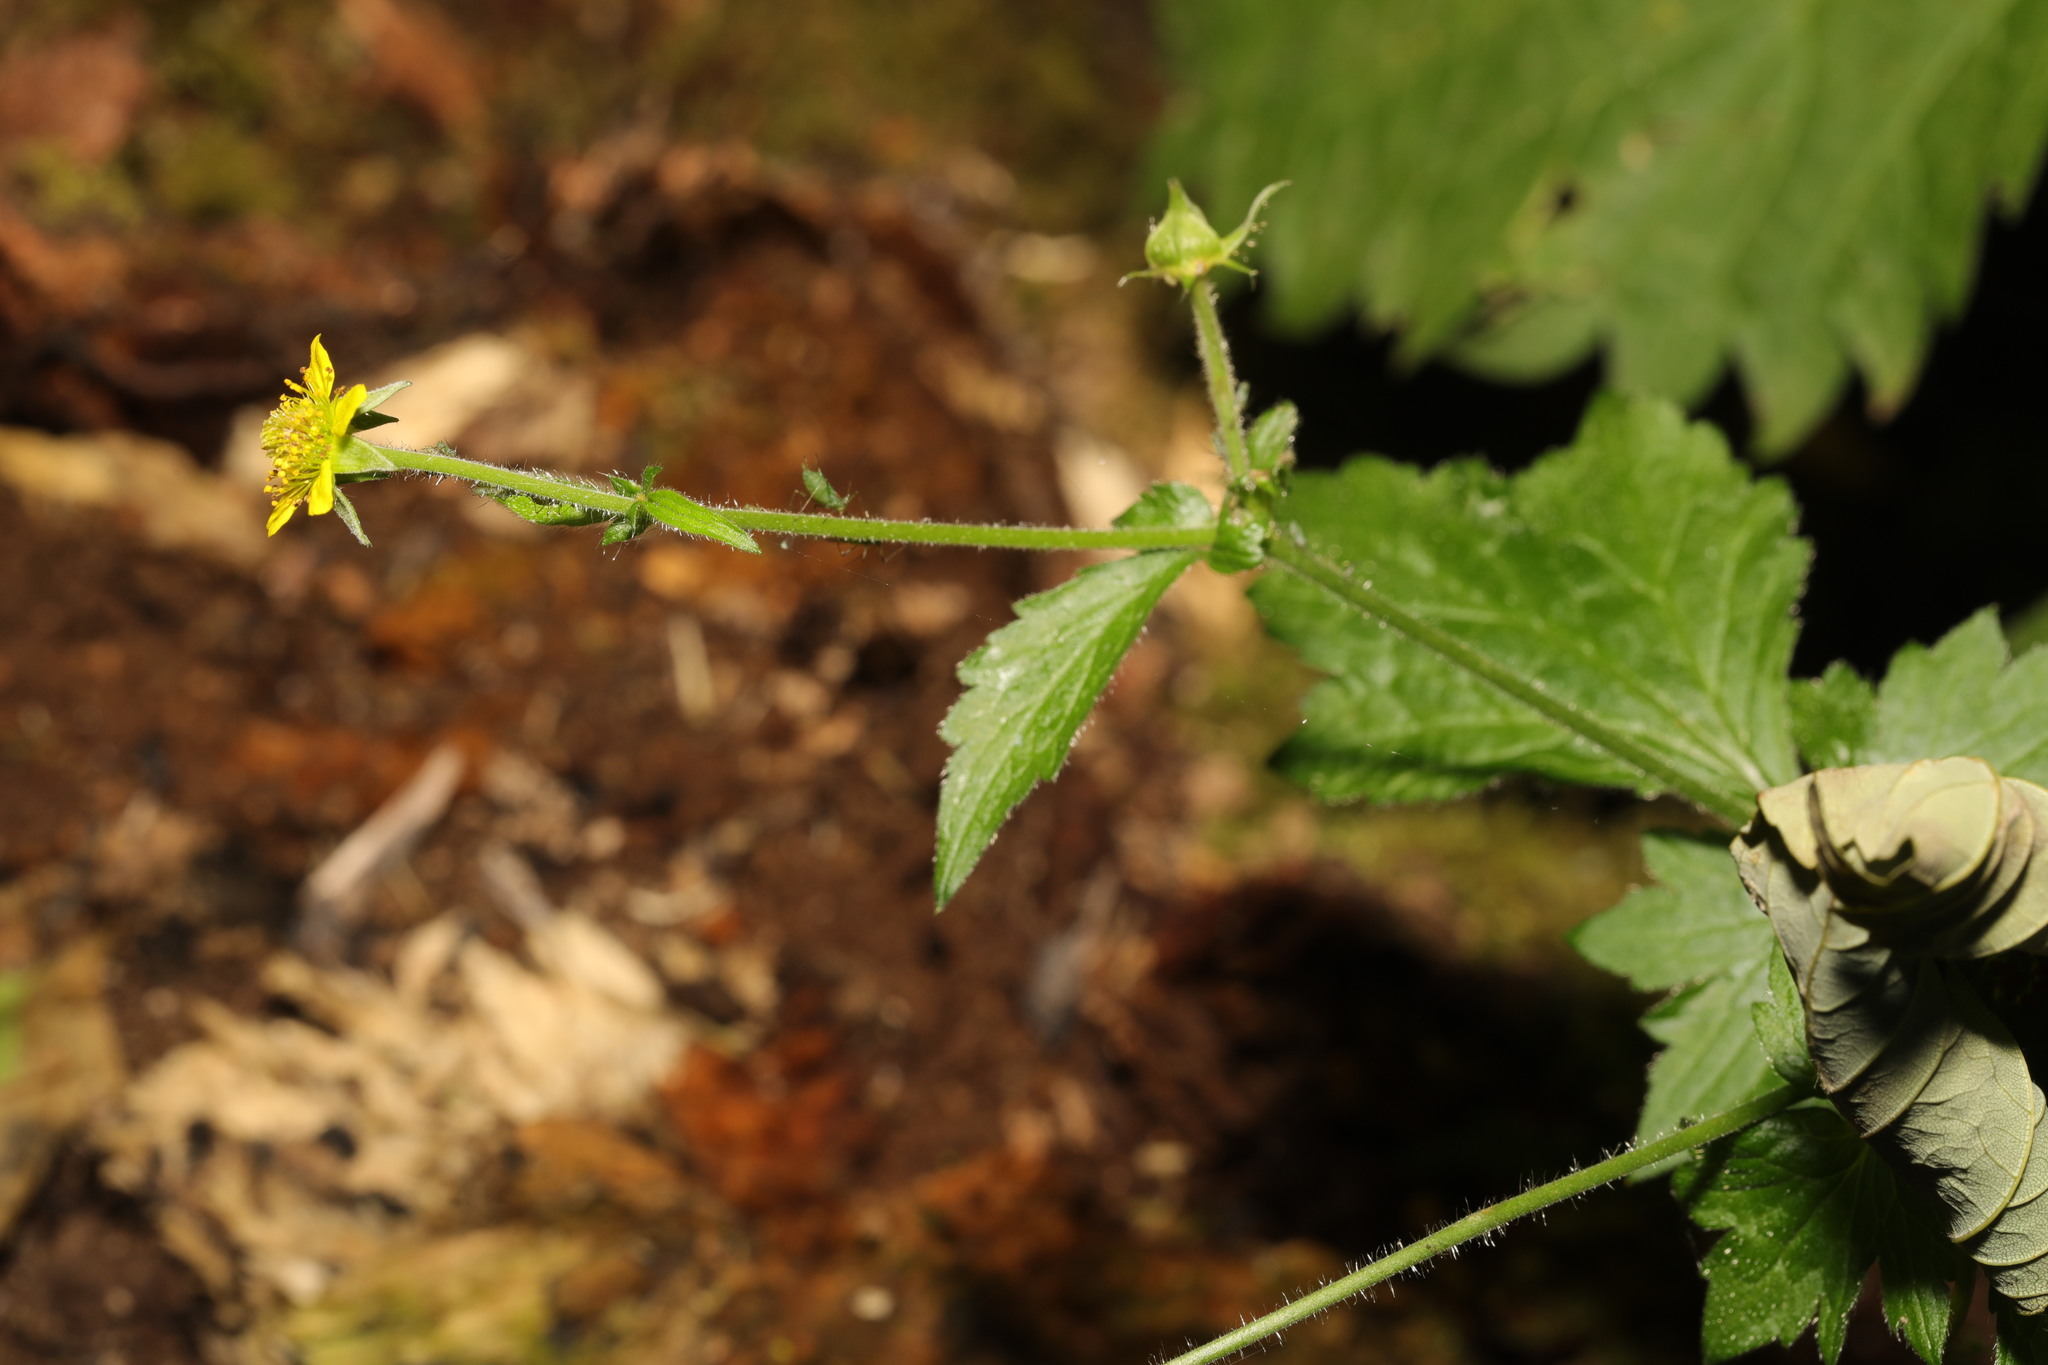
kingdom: Plantae
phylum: Tracheophyta
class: Magnoliopsida
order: Rosales
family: Rosaceae
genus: Geum
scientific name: Geum urbanum
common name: Wood avens
